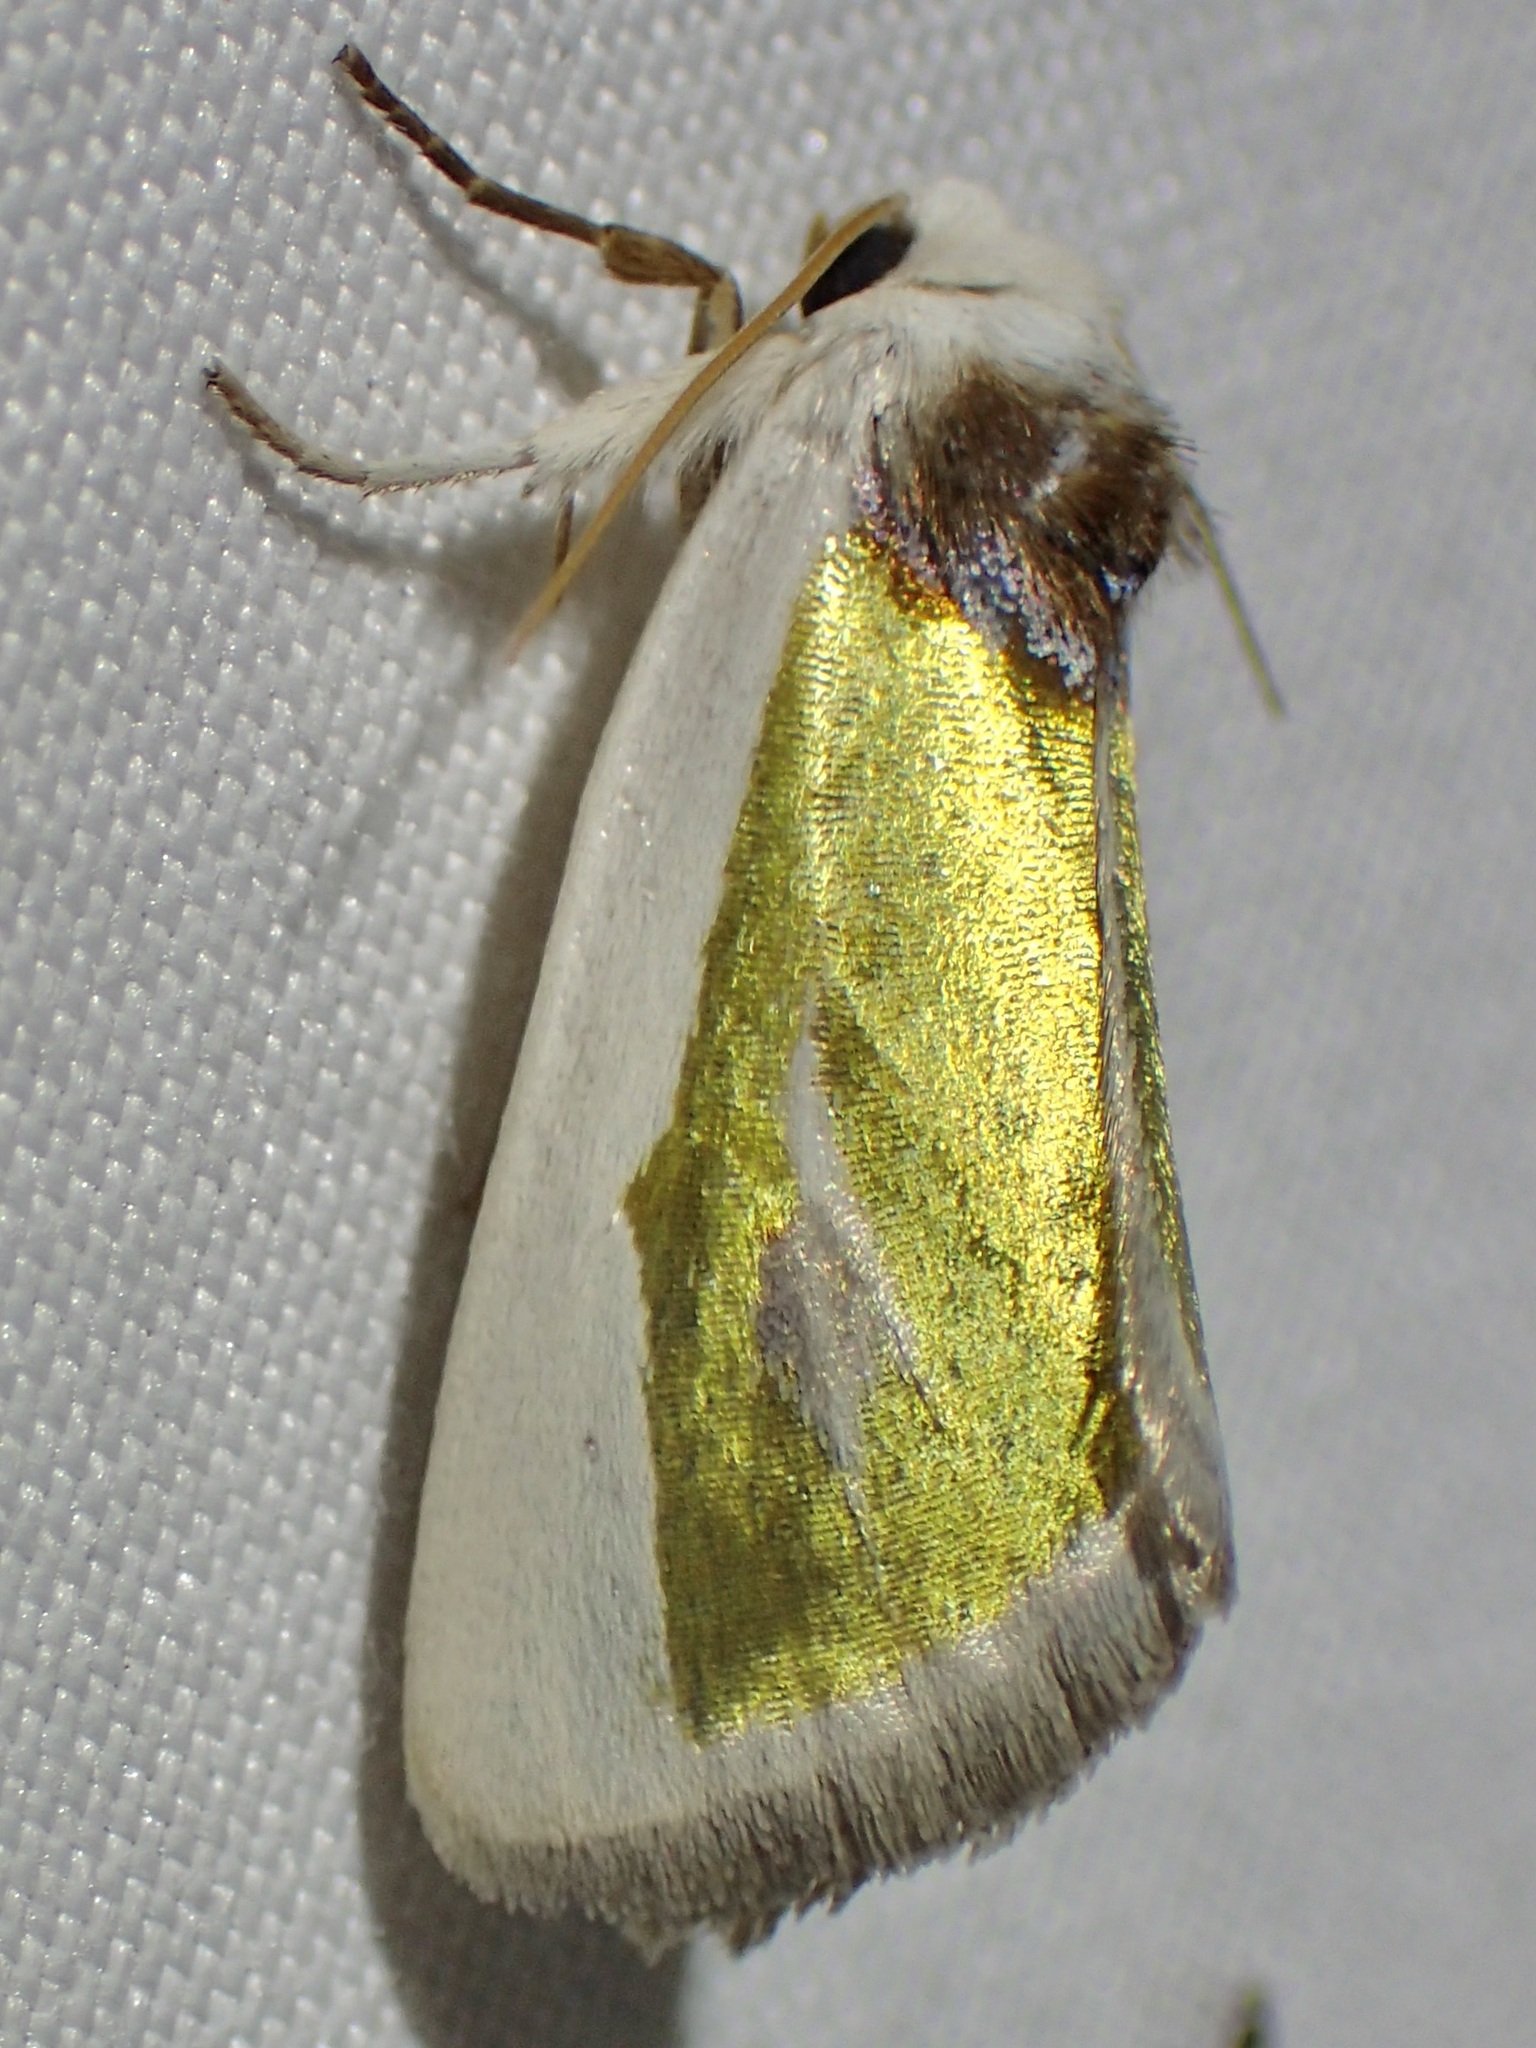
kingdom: Animalia
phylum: Arthropoda
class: Insecta
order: Lepidoptera
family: Noctuidae
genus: Neumoegenia
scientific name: Neumoegenia poetica
